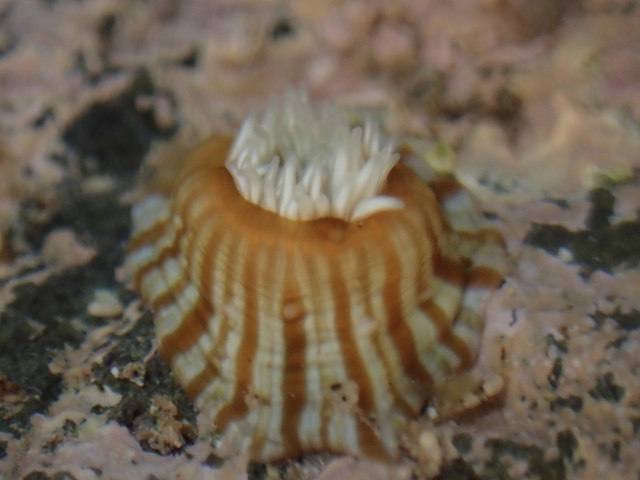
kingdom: Animalia
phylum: Cnidaria
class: Anthozoa
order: Actiniaria
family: Sagartiidae
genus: Anthothoe
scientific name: Anthothoe albocincta
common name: Orange striped anemone
